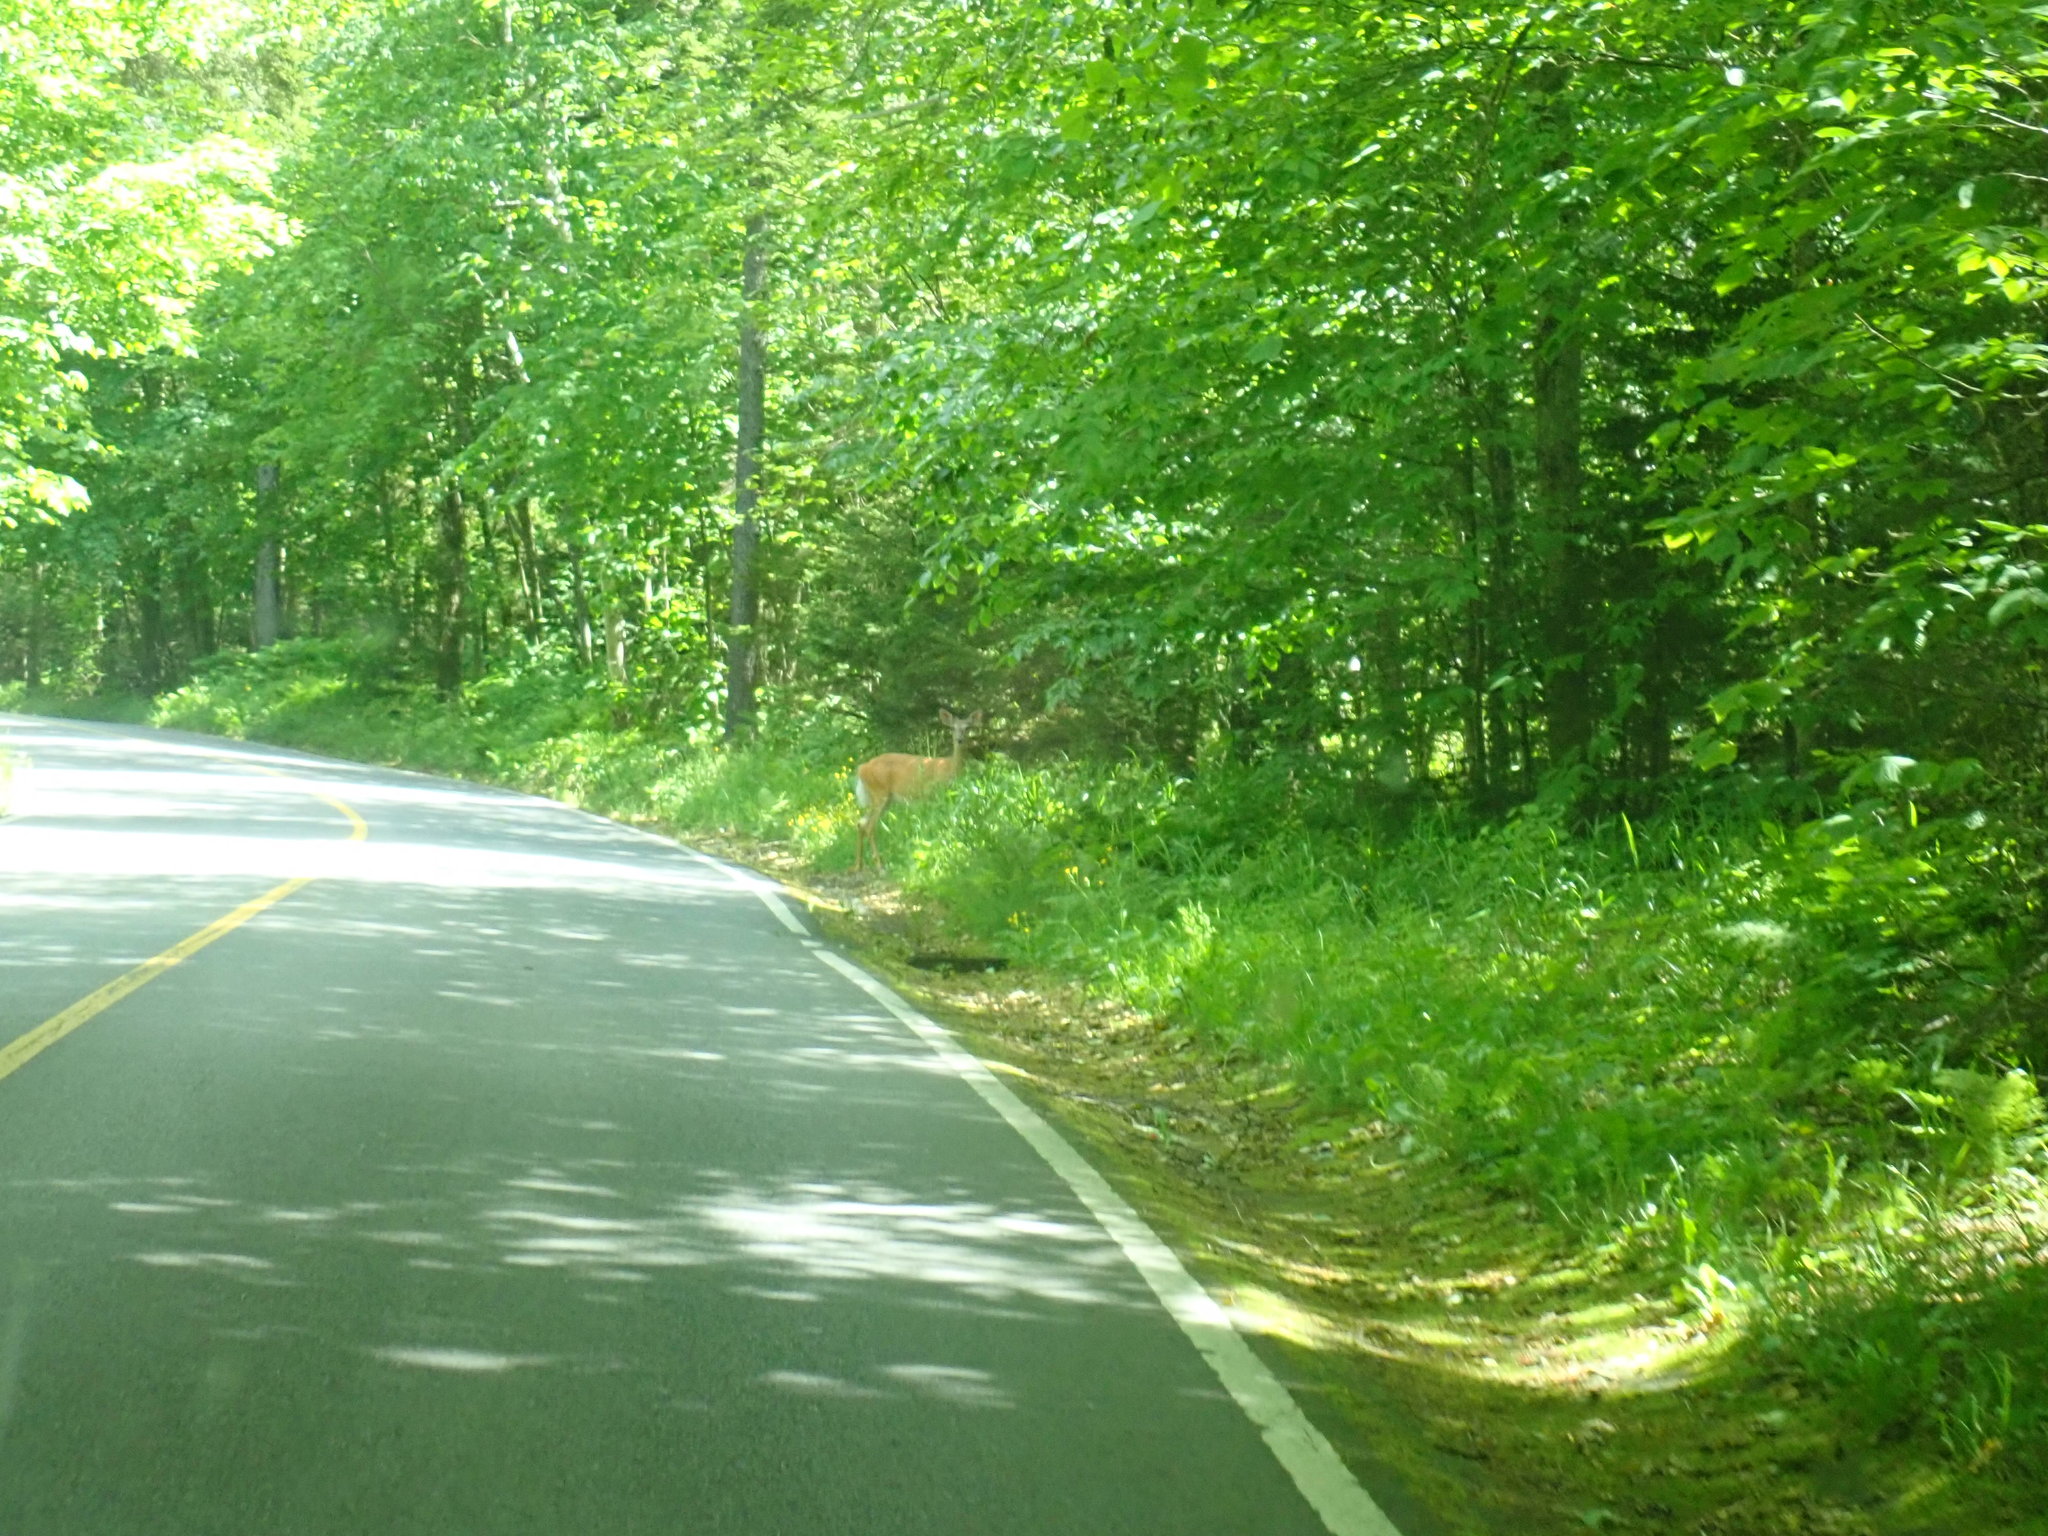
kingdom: Animalia
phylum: Chordata
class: Mammalia
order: Artiodactyla
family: Cervidae
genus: Odocoileus
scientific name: Odocoileus virginianus
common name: White-tailed deer
